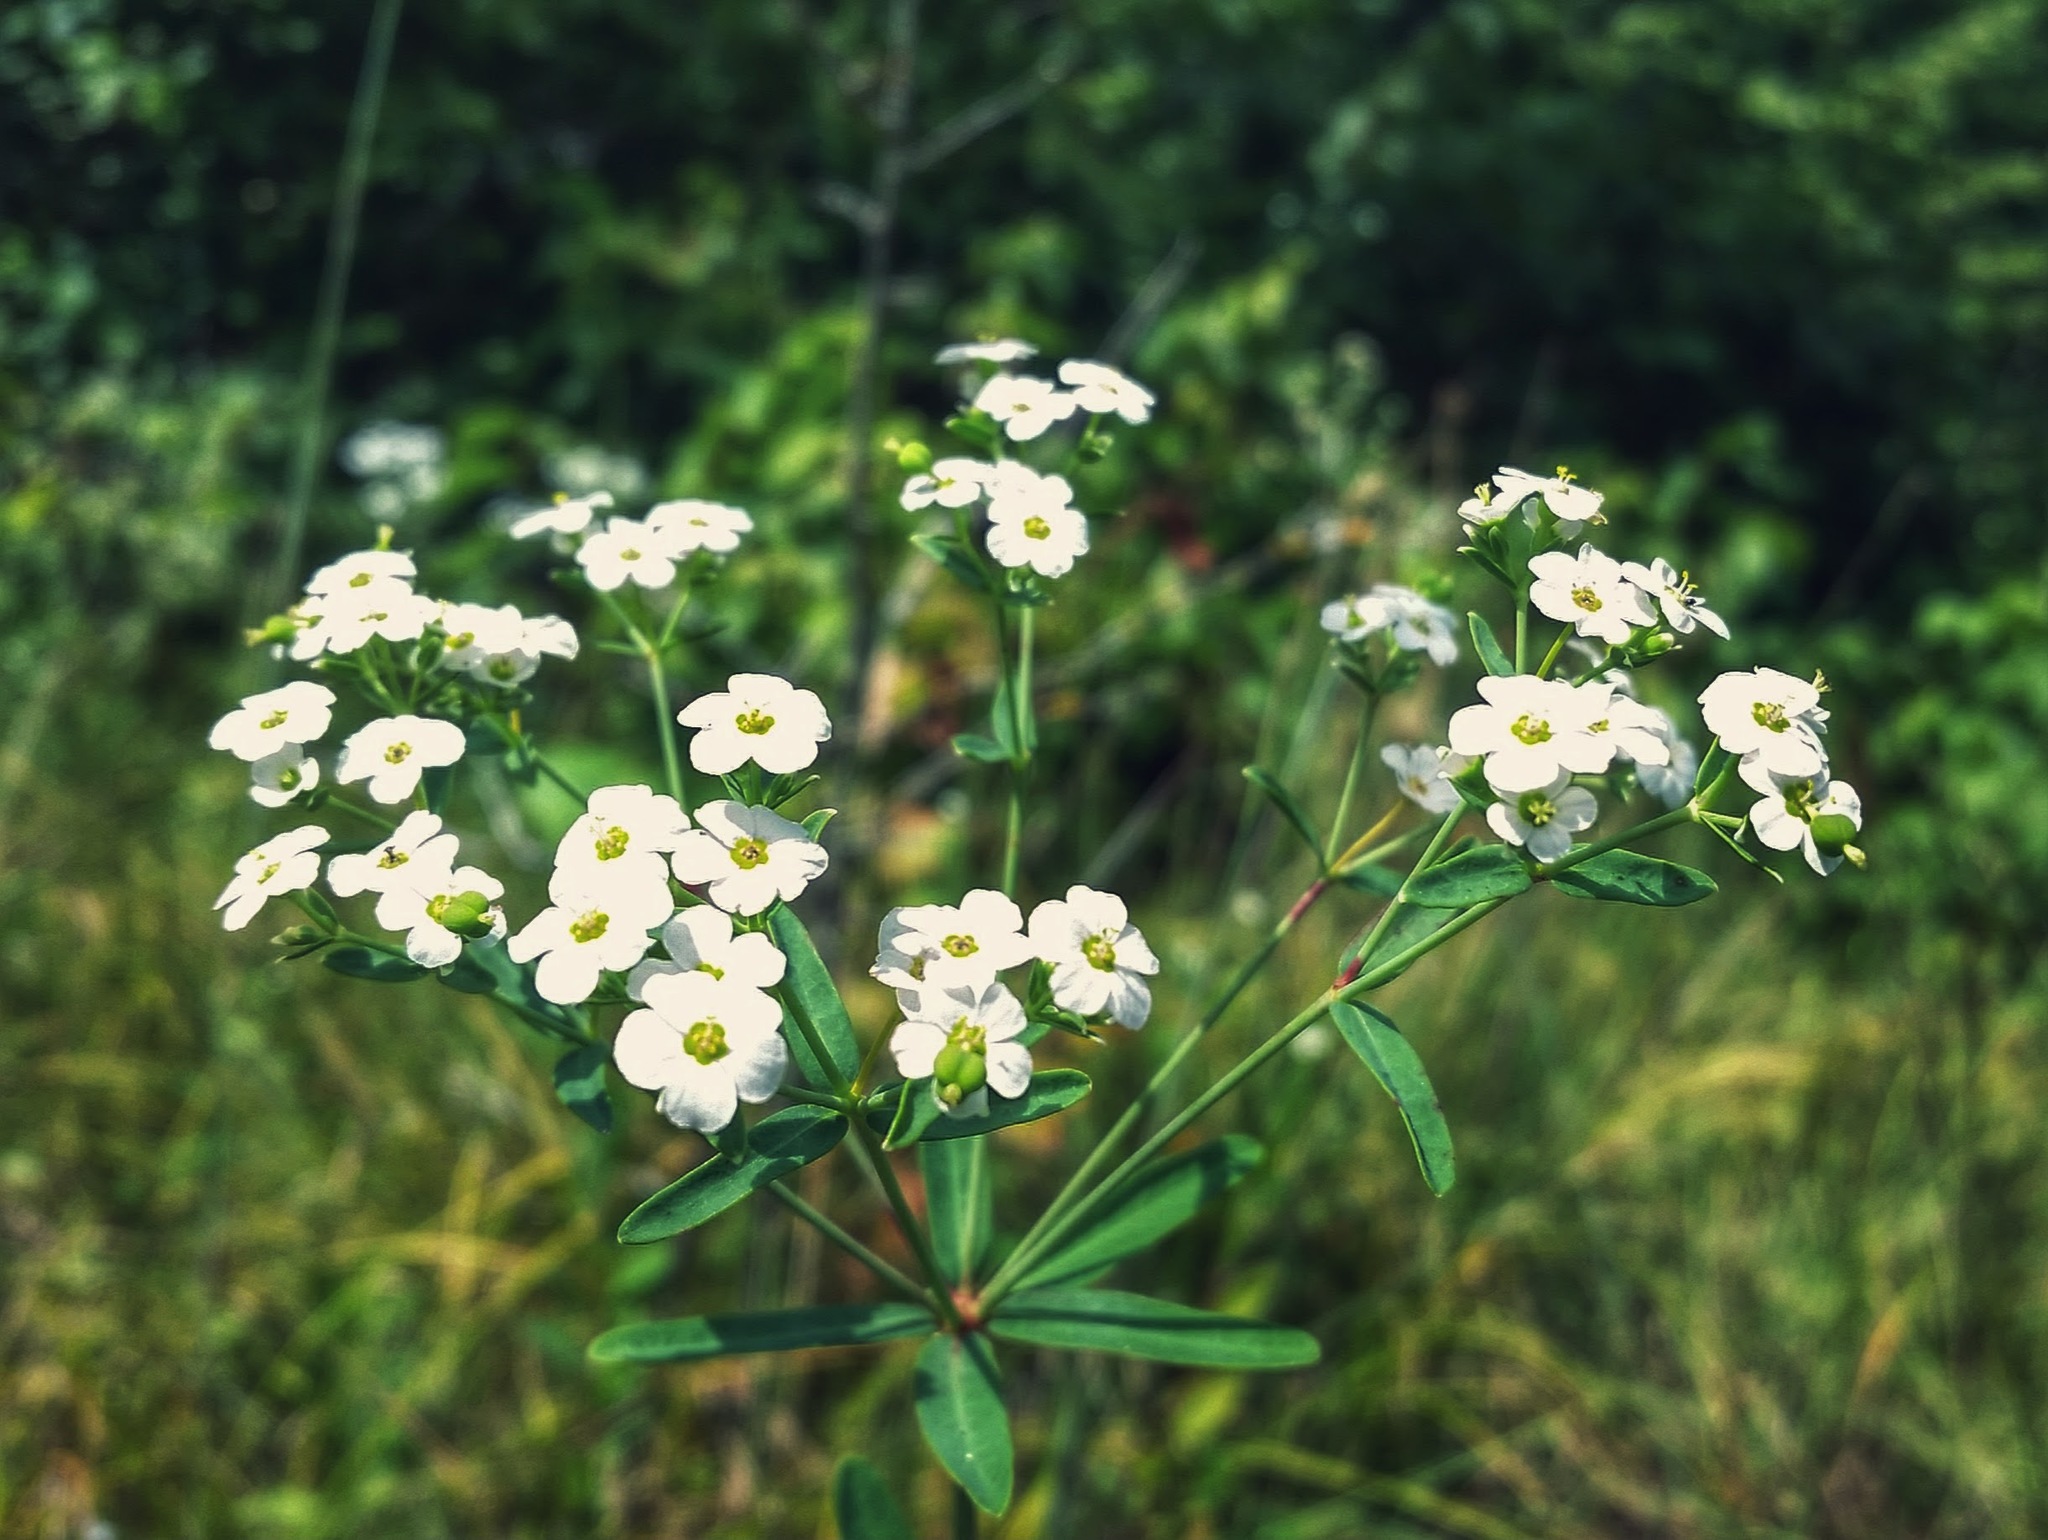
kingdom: Plantae
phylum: Tracheophyta
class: Magnoliopsida
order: Malpighiales
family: Euphorbiaceae
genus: Euphorbia
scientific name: Euphorbia corollata
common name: Flowering spurge
